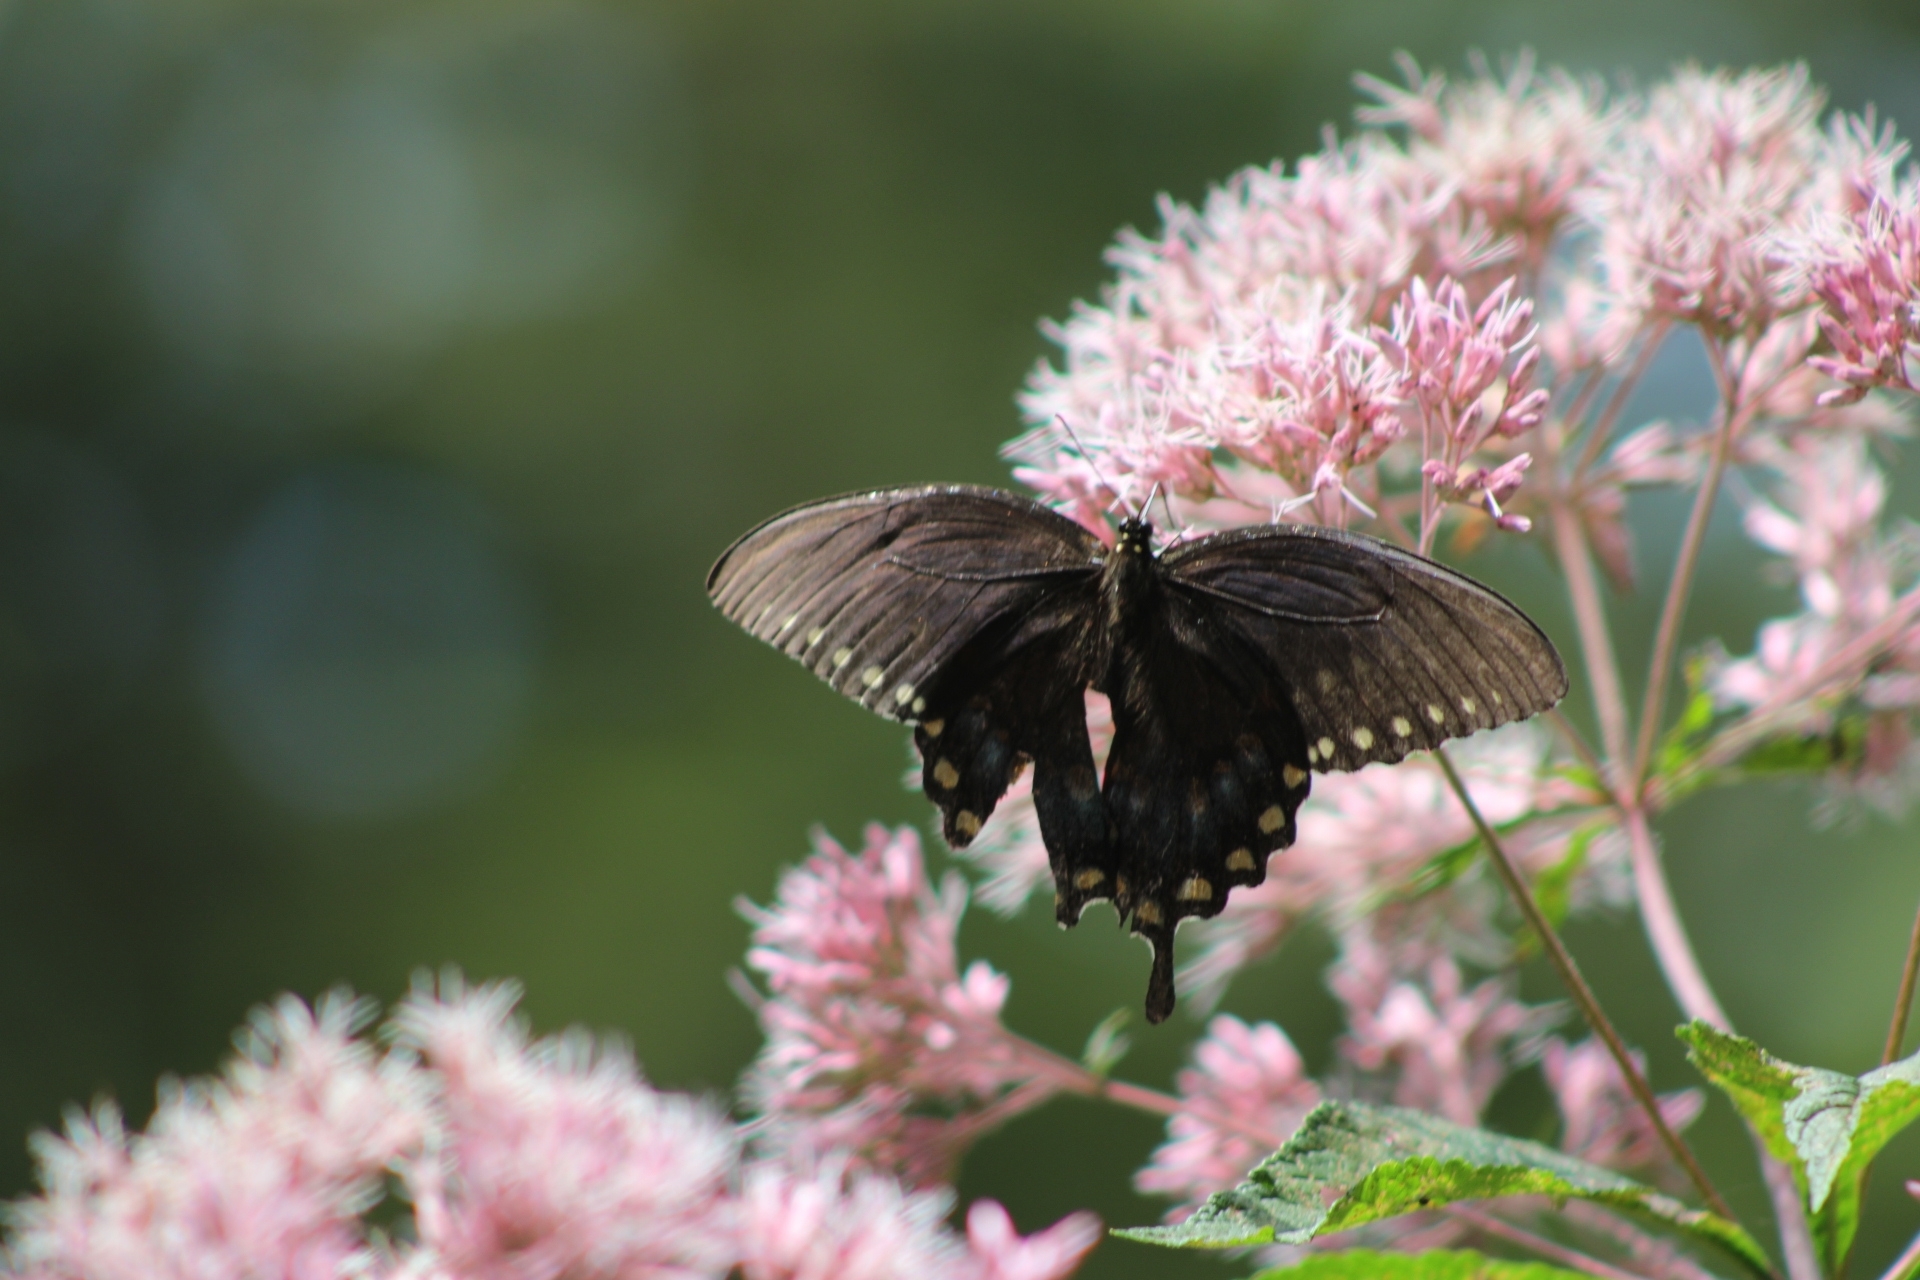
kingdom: Animalia
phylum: Arthropoda
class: Insecta
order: Lepidoptera
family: Papilionidae
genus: Papilio
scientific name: Papilio troilus
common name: Spicebush swallowtail
